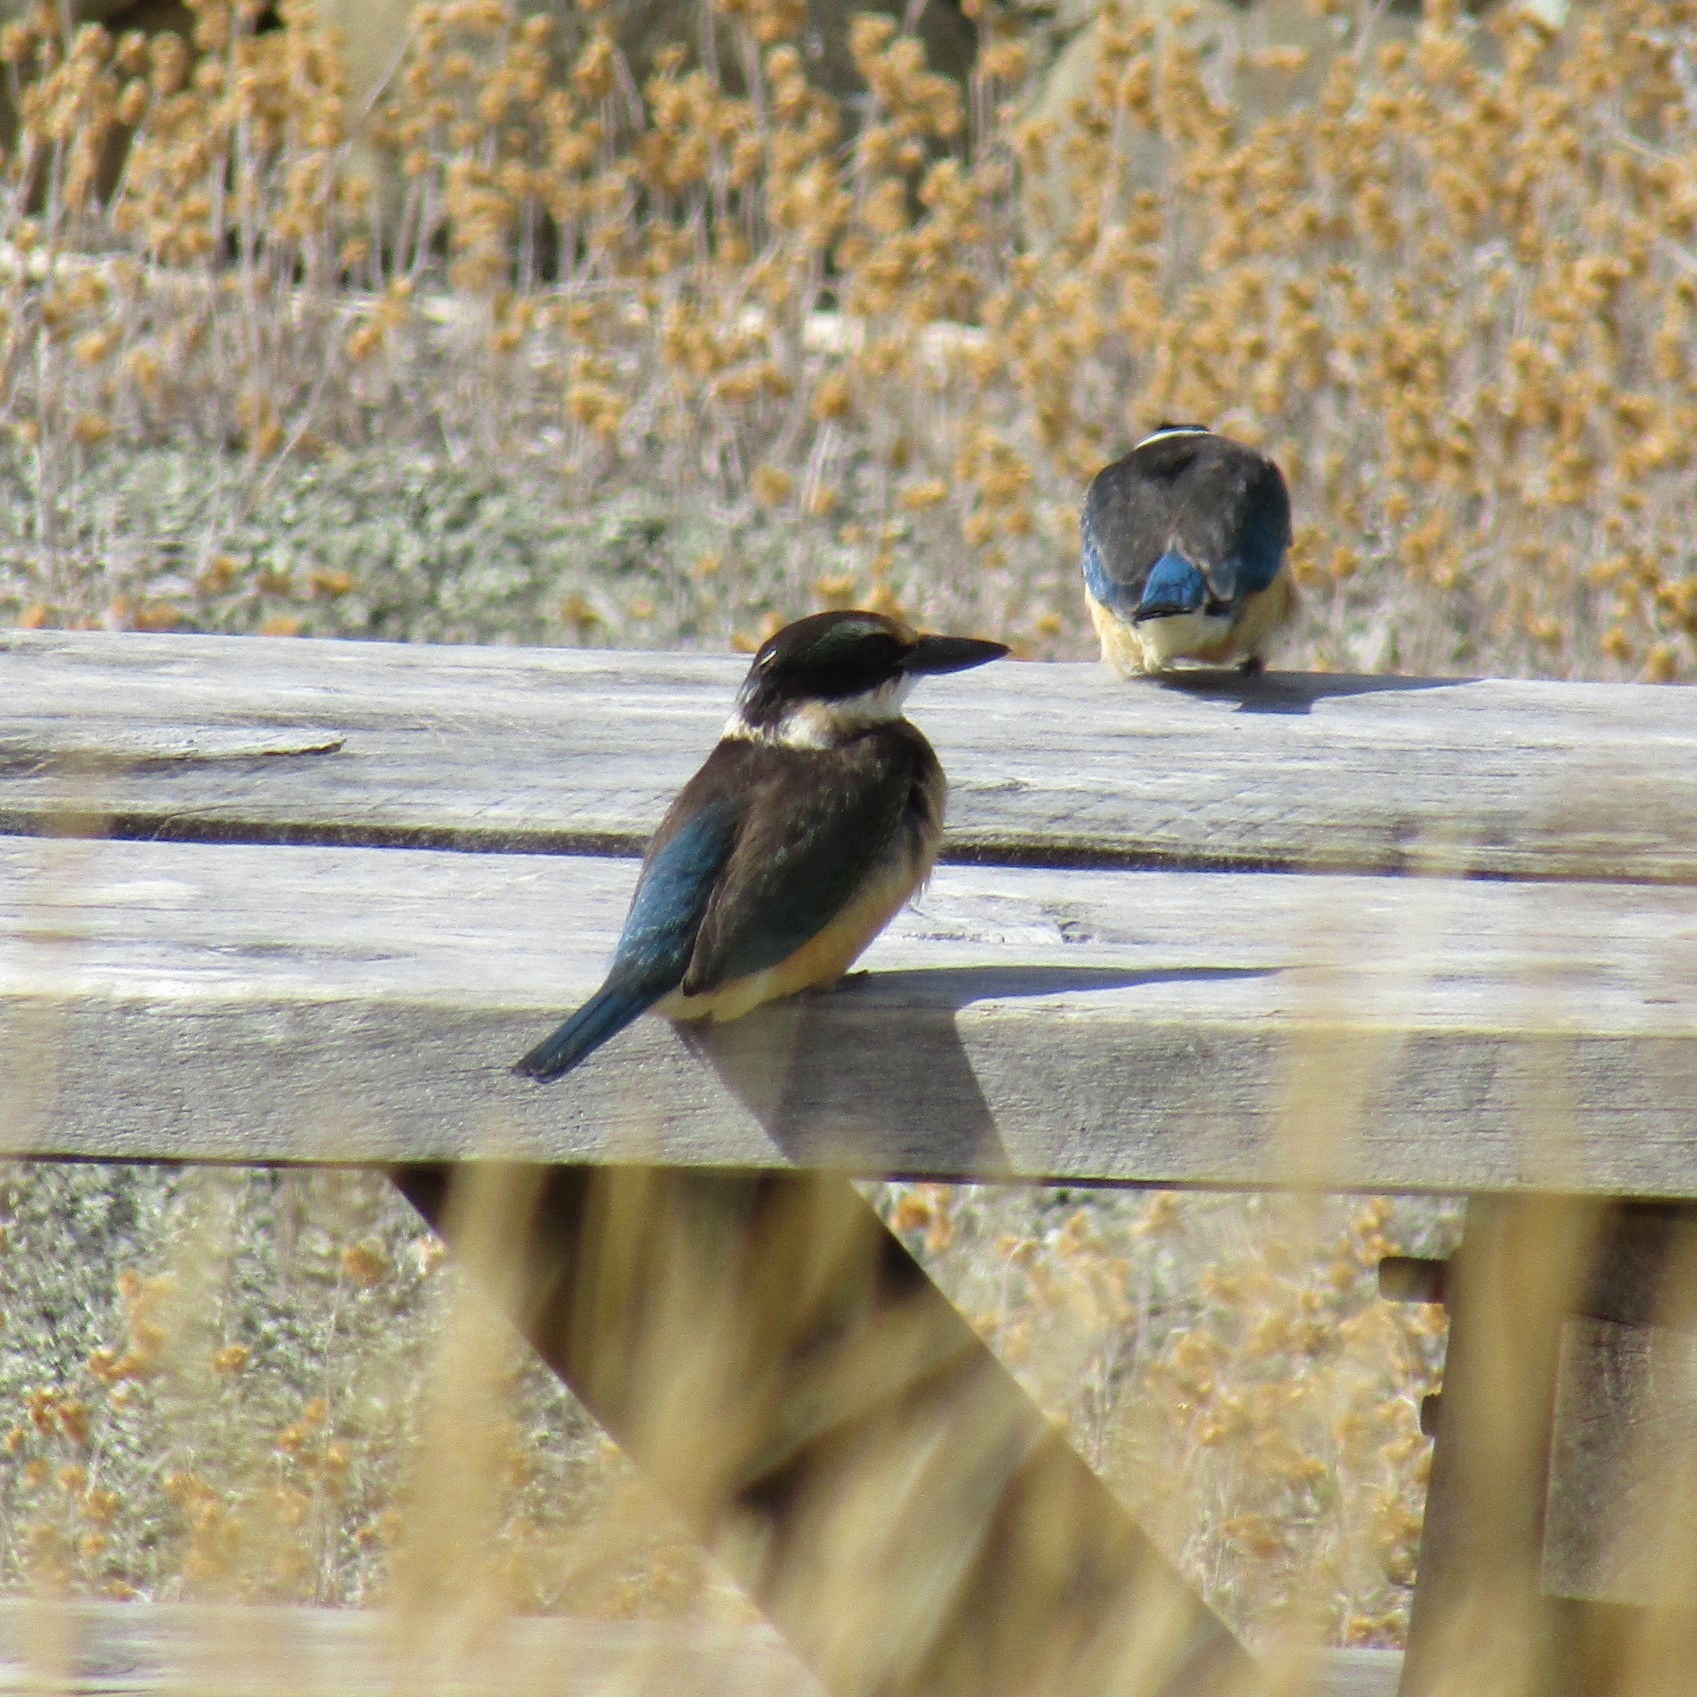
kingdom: Animalia
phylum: Chordata
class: Aves
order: Coraciiformes
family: Alcedinidae
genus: Todiramphus
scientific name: Todiramphus sanctus
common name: Sacred kingfisher
